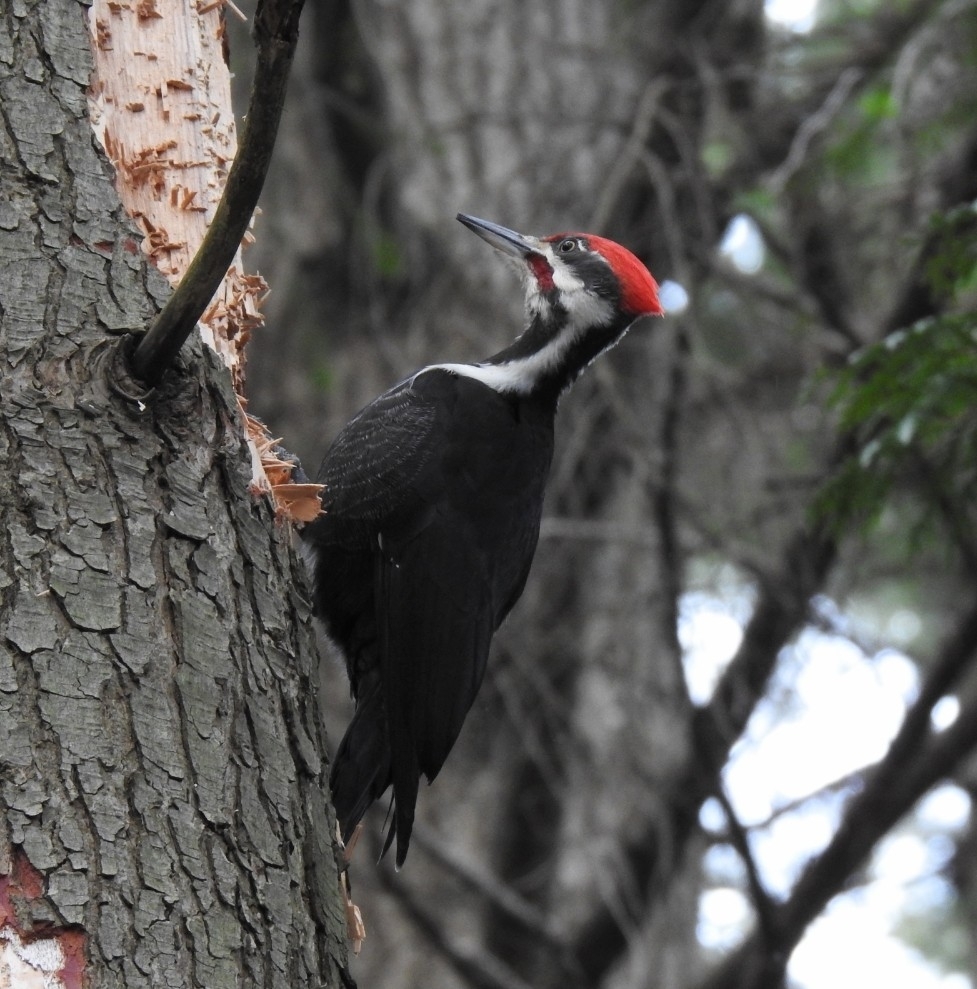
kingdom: Animalia
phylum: Chordata
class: Aves
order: Piciformes
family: Picidae
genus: Dryocopus
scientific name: Dryocopus pileatus
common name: Pileated woodpecker
